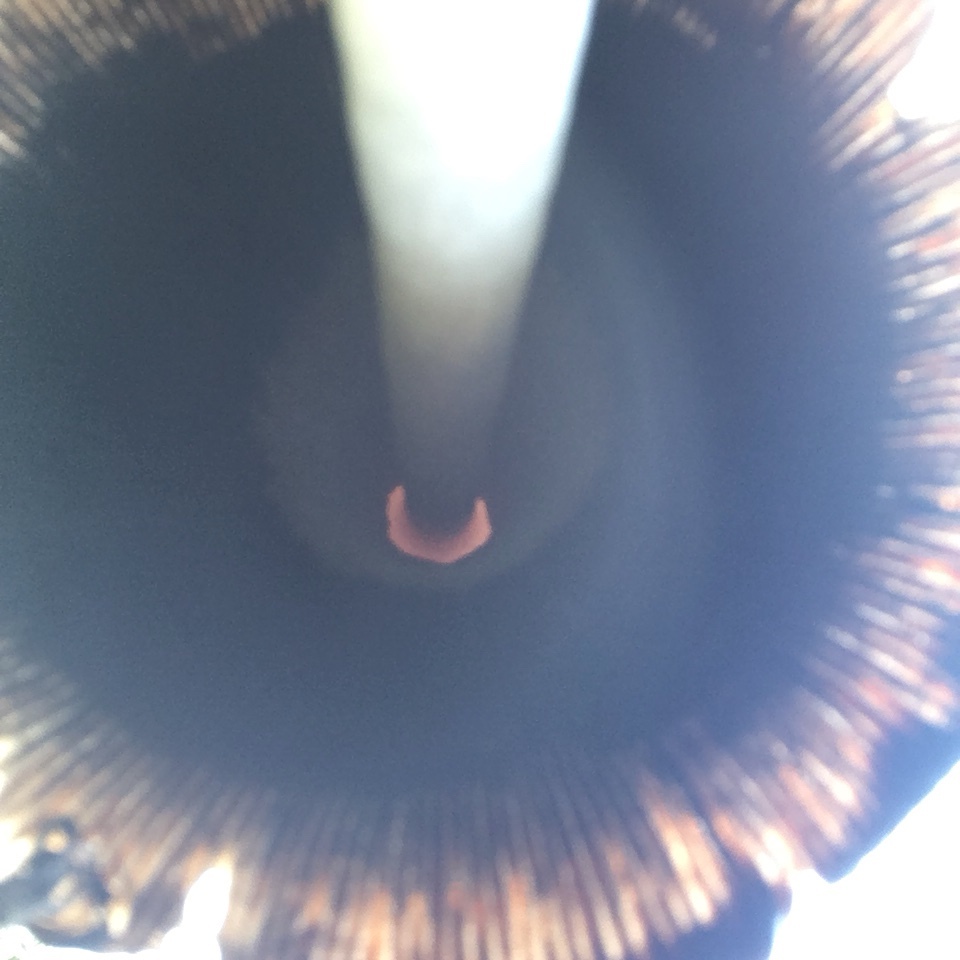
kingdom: Fungi
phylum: Basidiomycota
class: Agaricomycetes
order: Agaricales
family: Agaricaceae
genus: Coprinus
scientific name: Coprinus comatus
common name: Lawyer's wig
